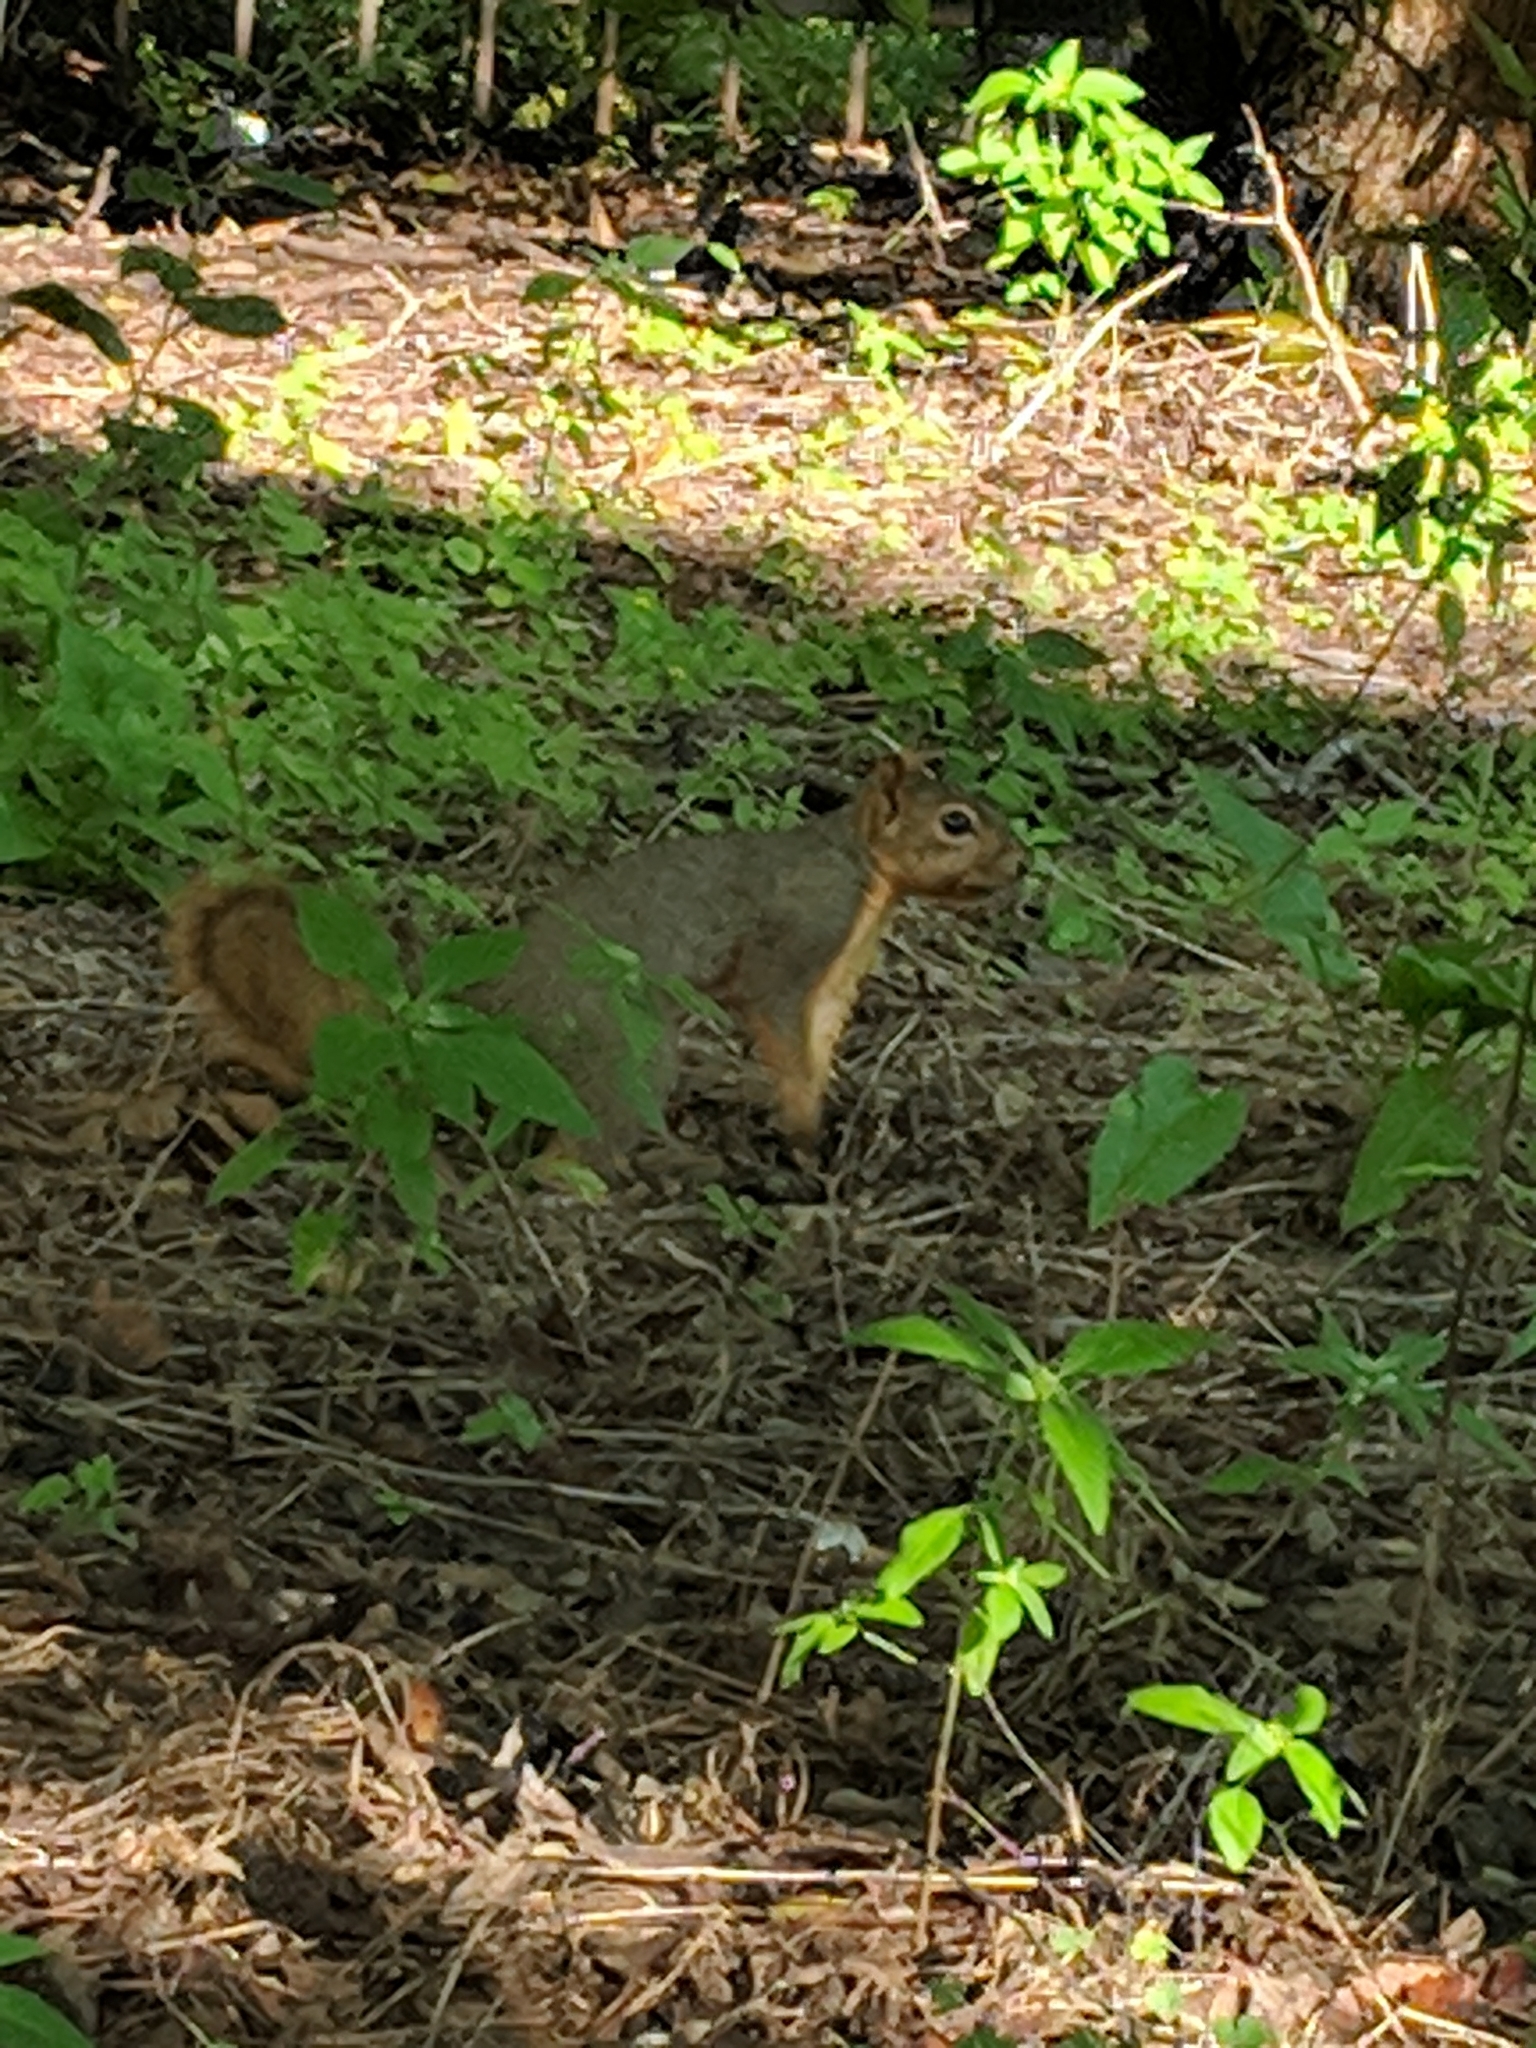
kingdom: Animalia
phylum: Chordata
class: Mammalia
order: Rodentia
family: Sciuridae
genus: Sciurus
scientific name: Sciurus niger
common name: Fox squirrel
